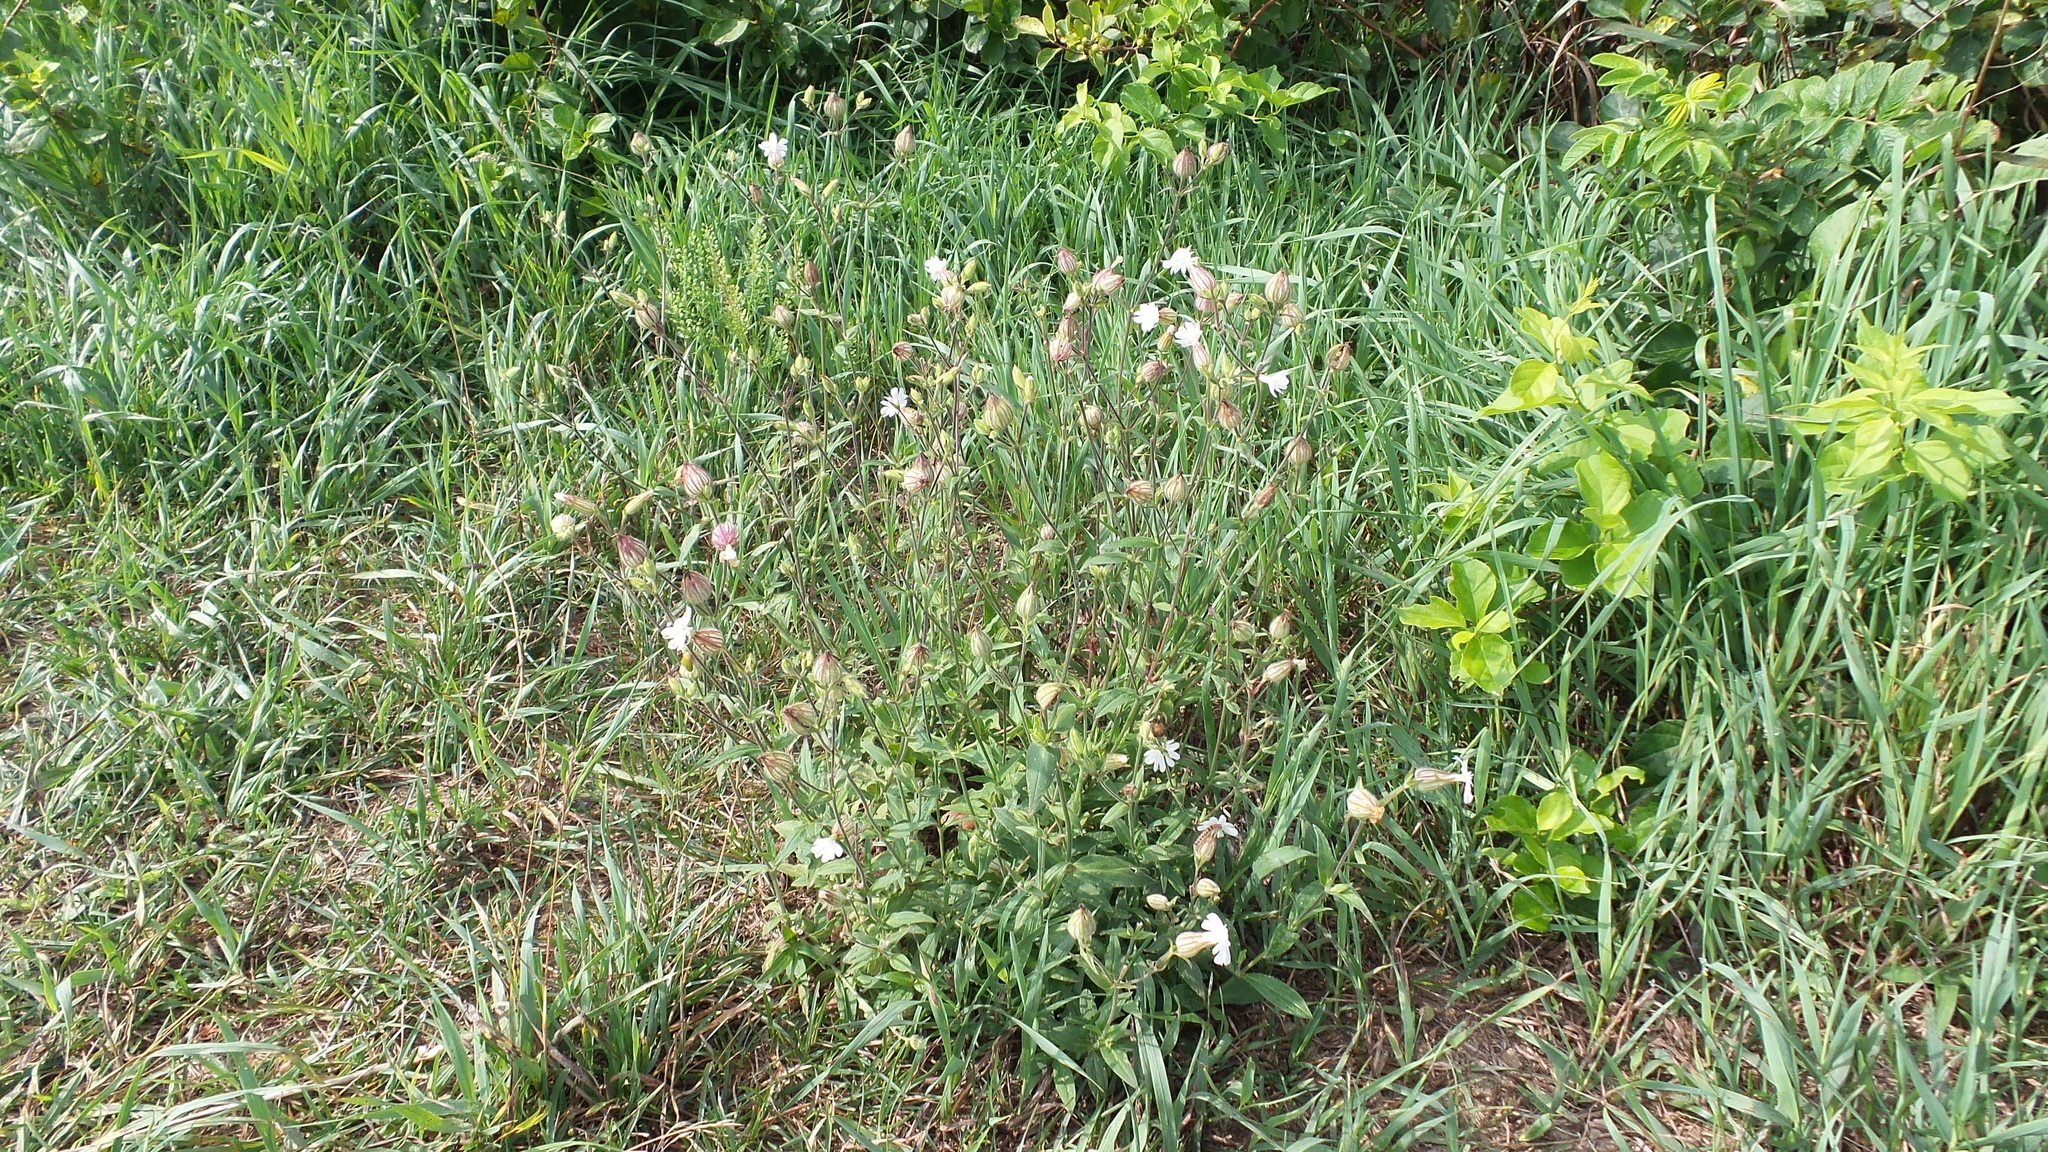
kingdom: Plantae
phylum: Tracheophyta
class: Magnoliopsida
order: Caryophyllales
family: Caryophyllaceae
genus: Silene
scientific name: Silene latifolia
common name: White campion
